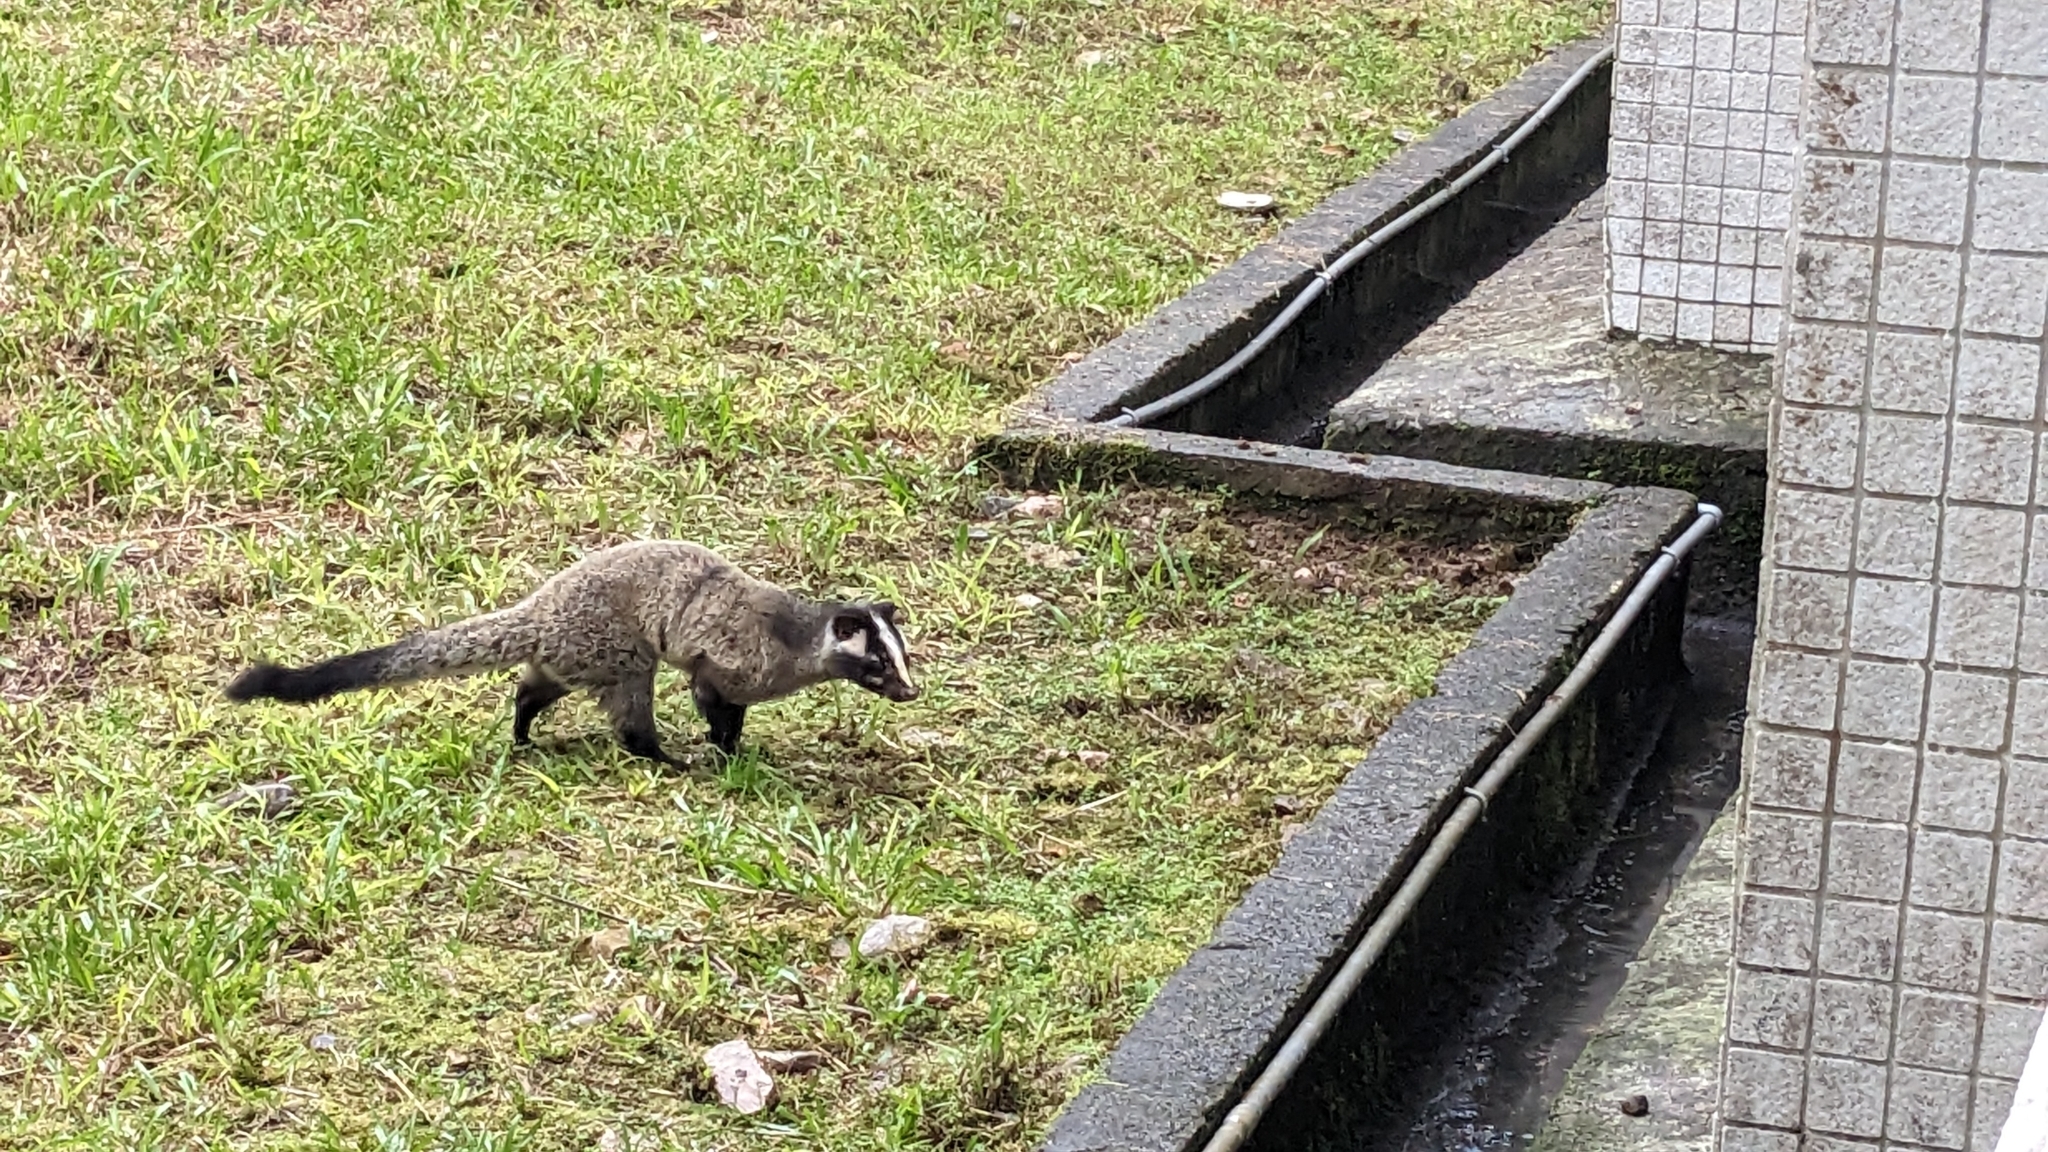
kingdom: Animalia
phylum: Chordata
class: Mammalia
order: Carnivora
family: Viverridae
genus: Paguma
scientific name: Paguma larvata
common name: Masked palm civet
